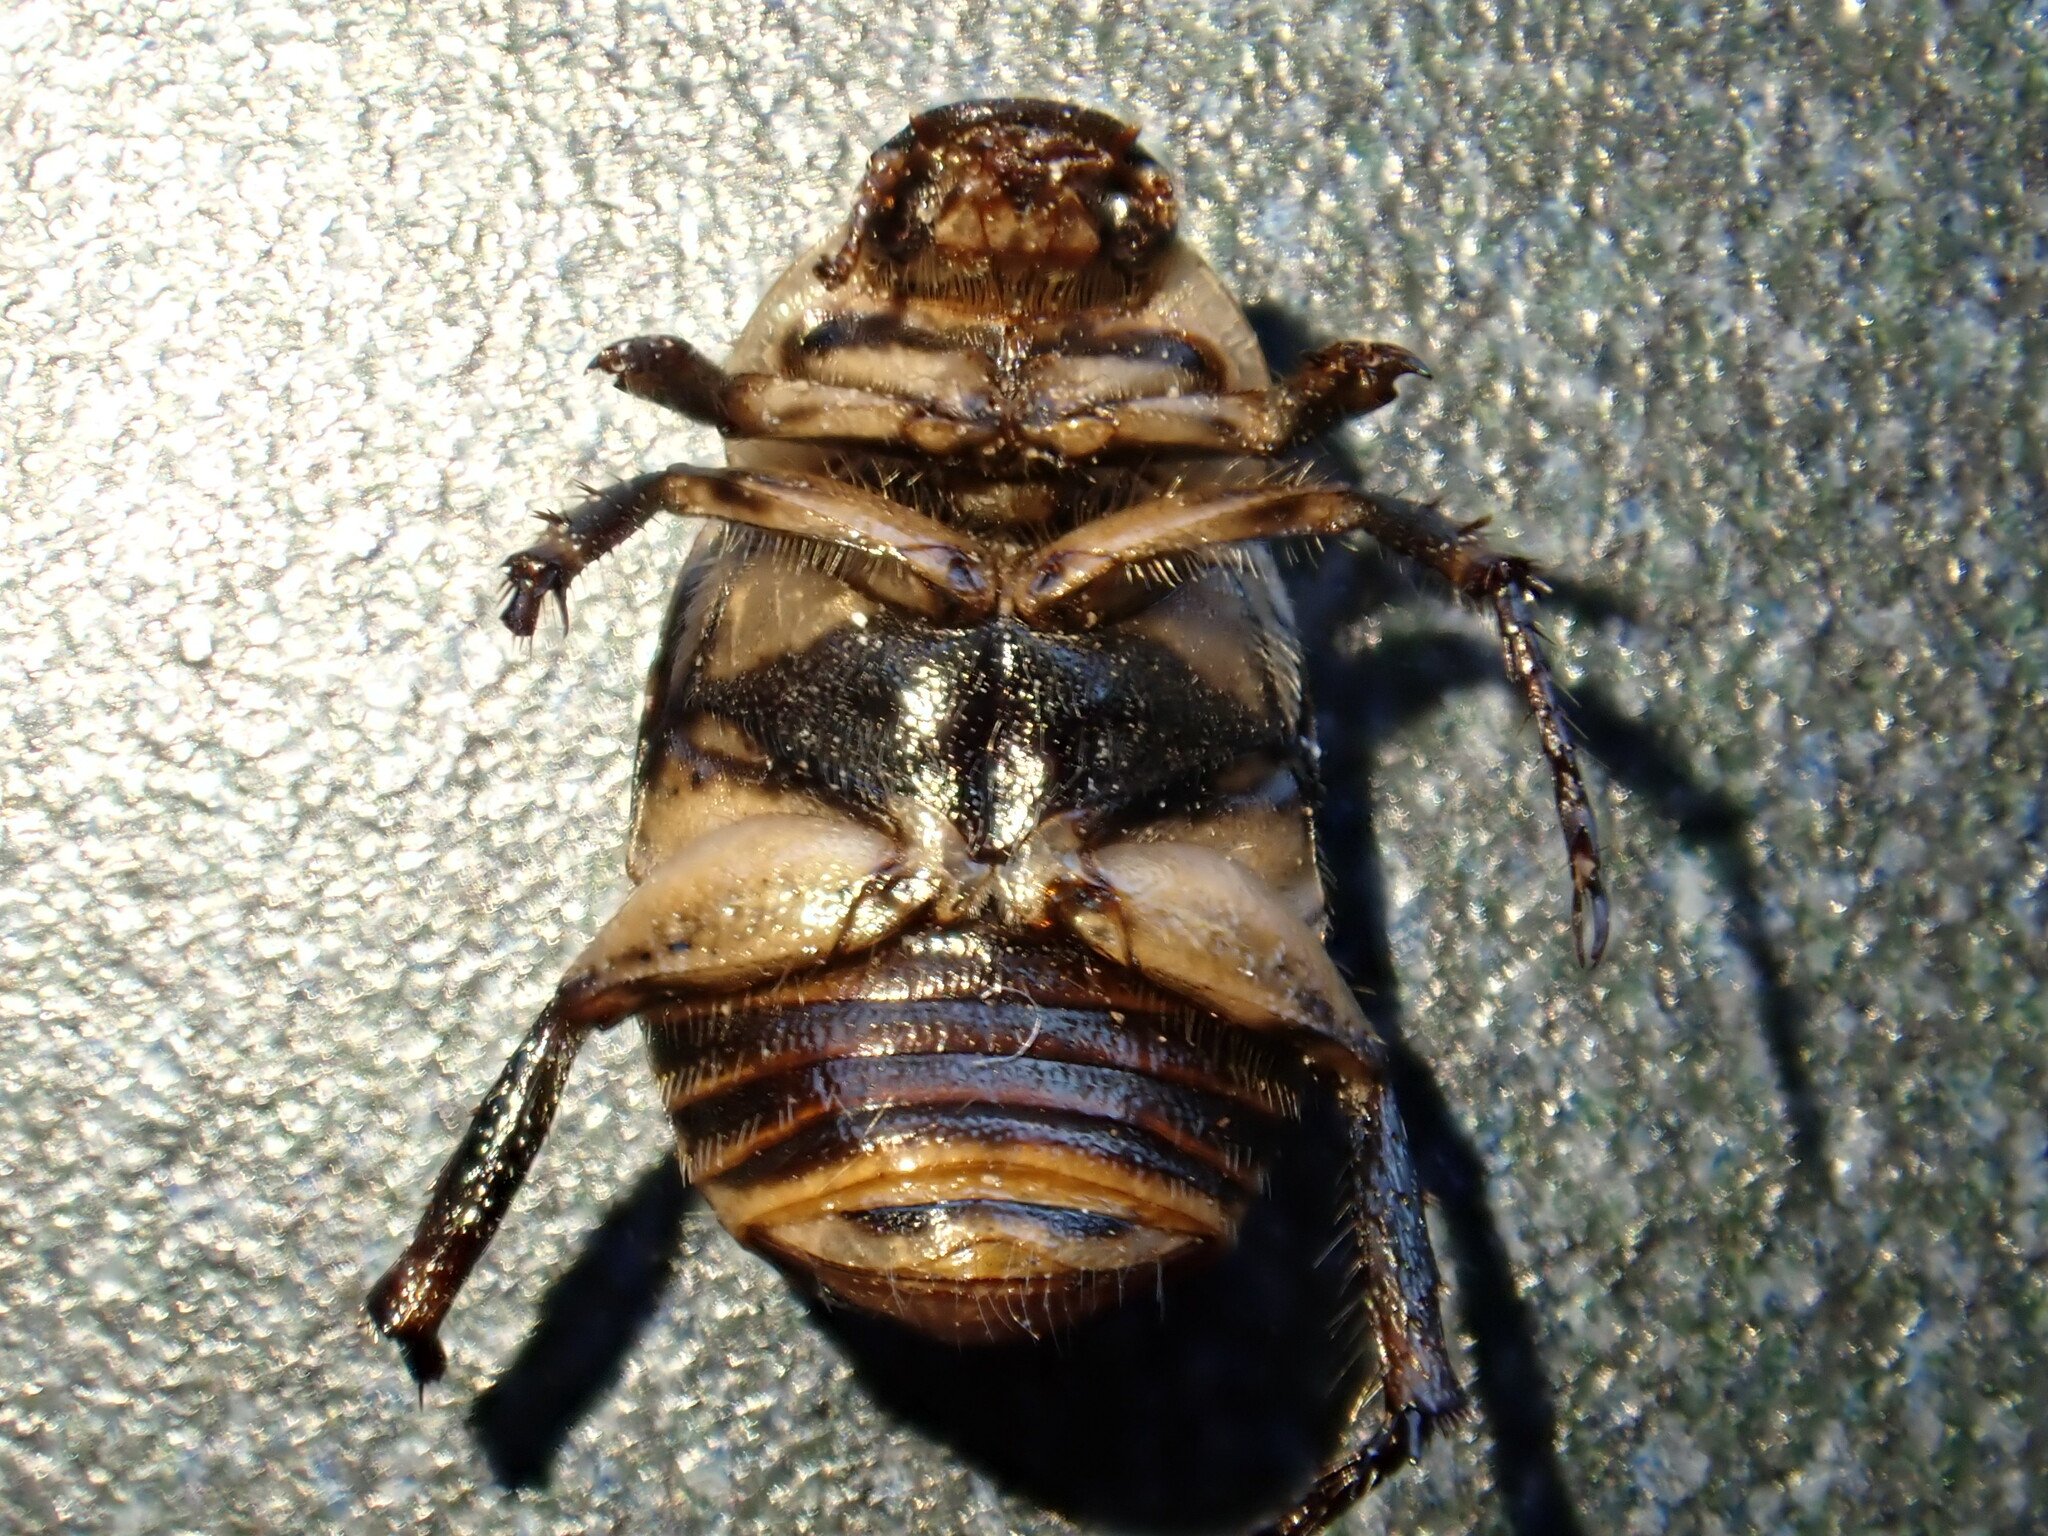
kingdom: Animalia
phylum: Arthropoda
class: Insecta
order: Coleoptera
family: Scarabaeidae
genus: Exomala
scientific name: Exomala orientalis
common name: Oriental beetle
